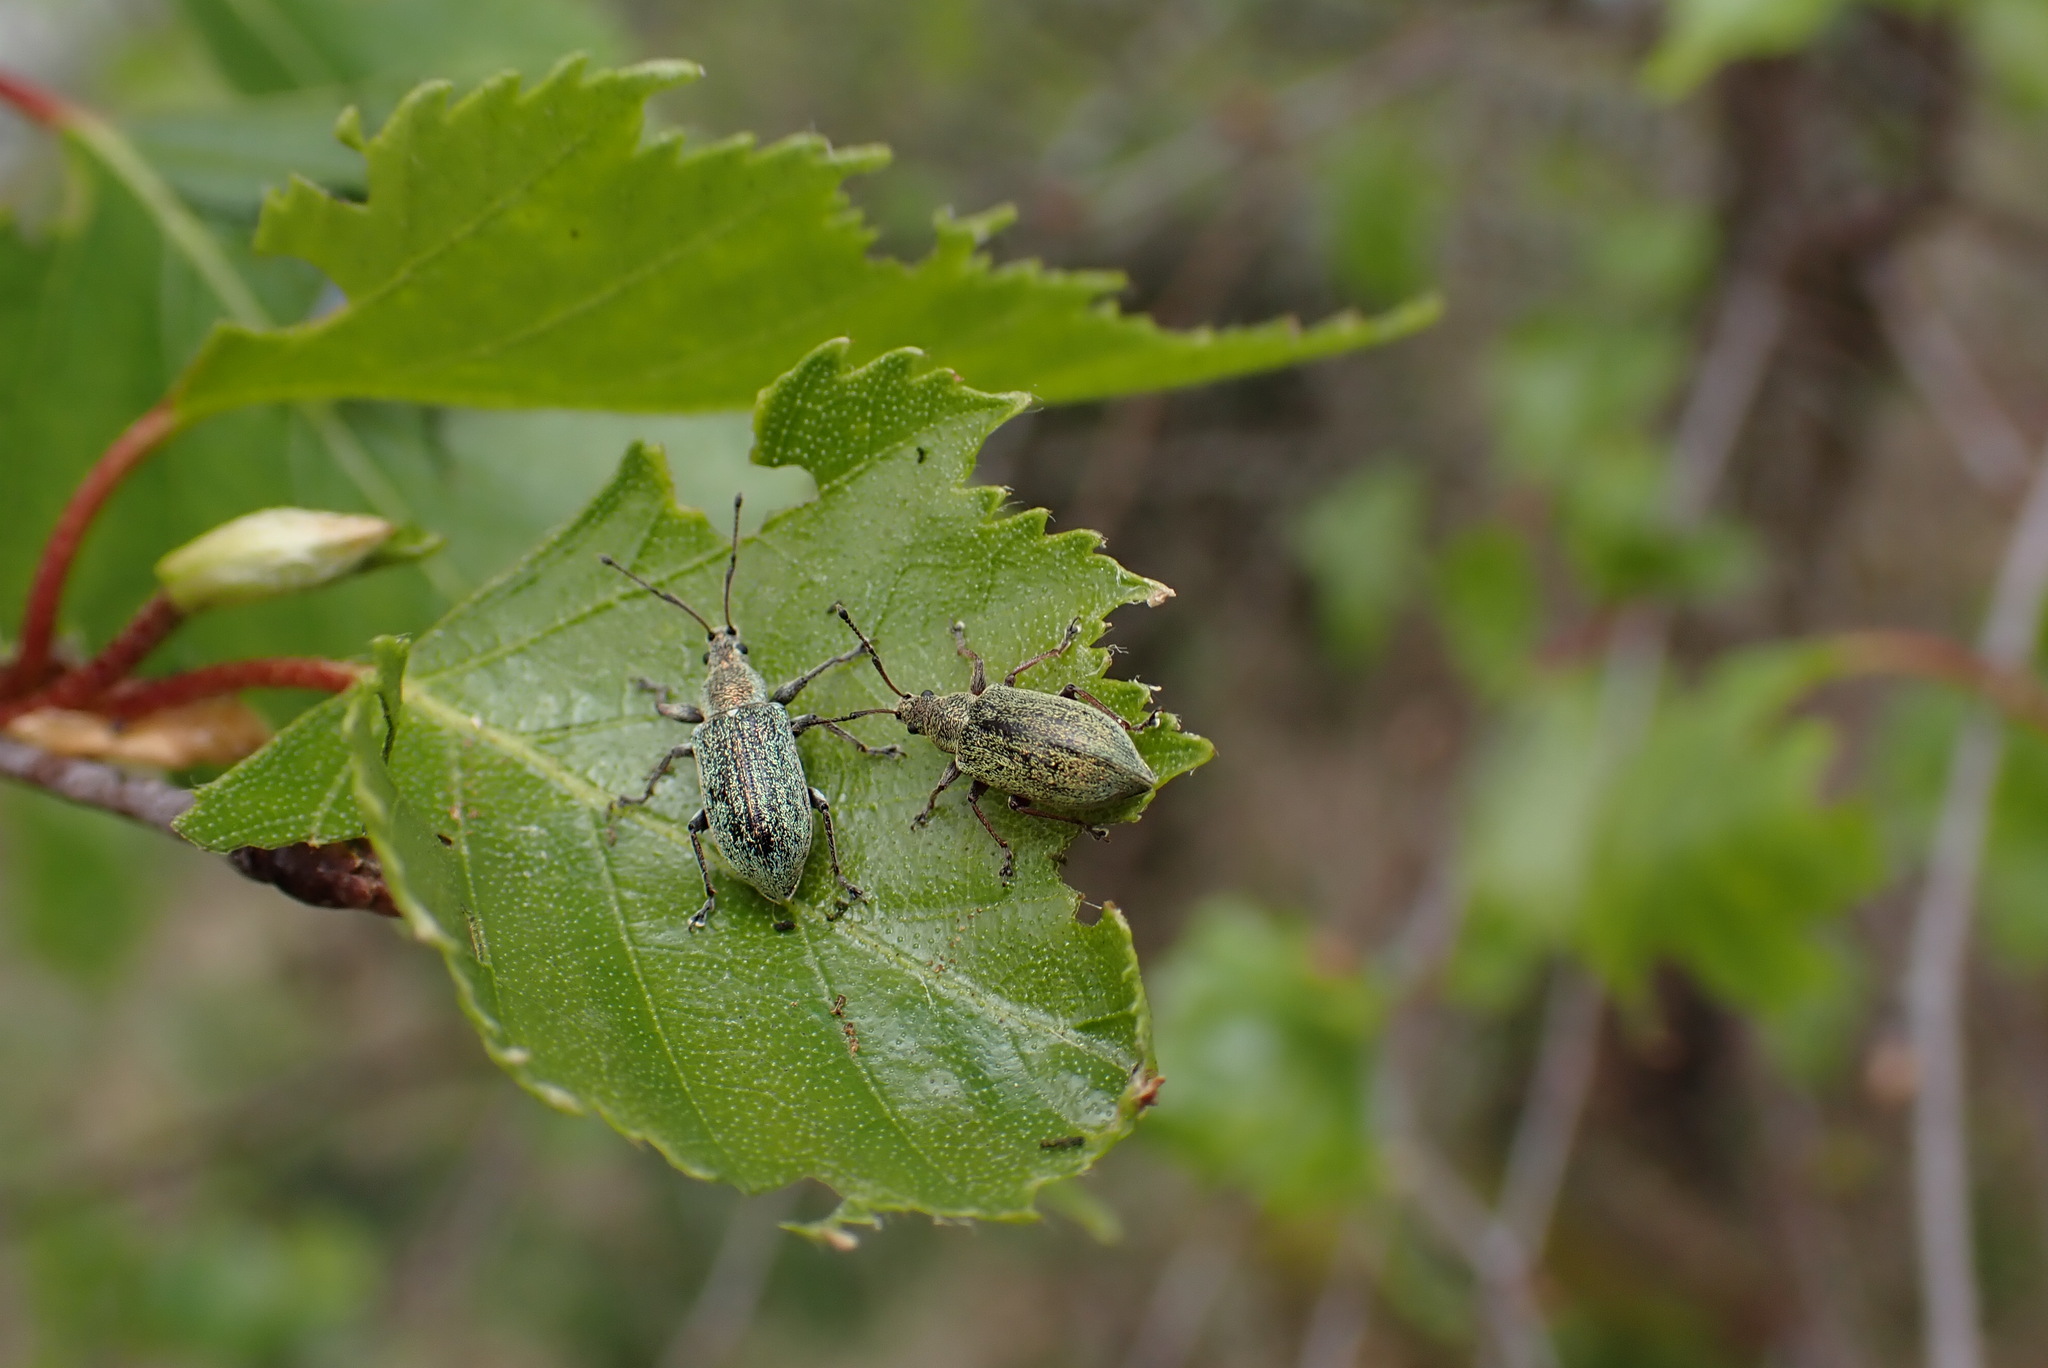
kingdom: Animalia
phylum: Arthropoda
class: Insecta
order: Coleoptera
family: Curculionidae
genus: Phyllobius
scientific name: Phyllobius pyri
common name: Common leaf weevil
